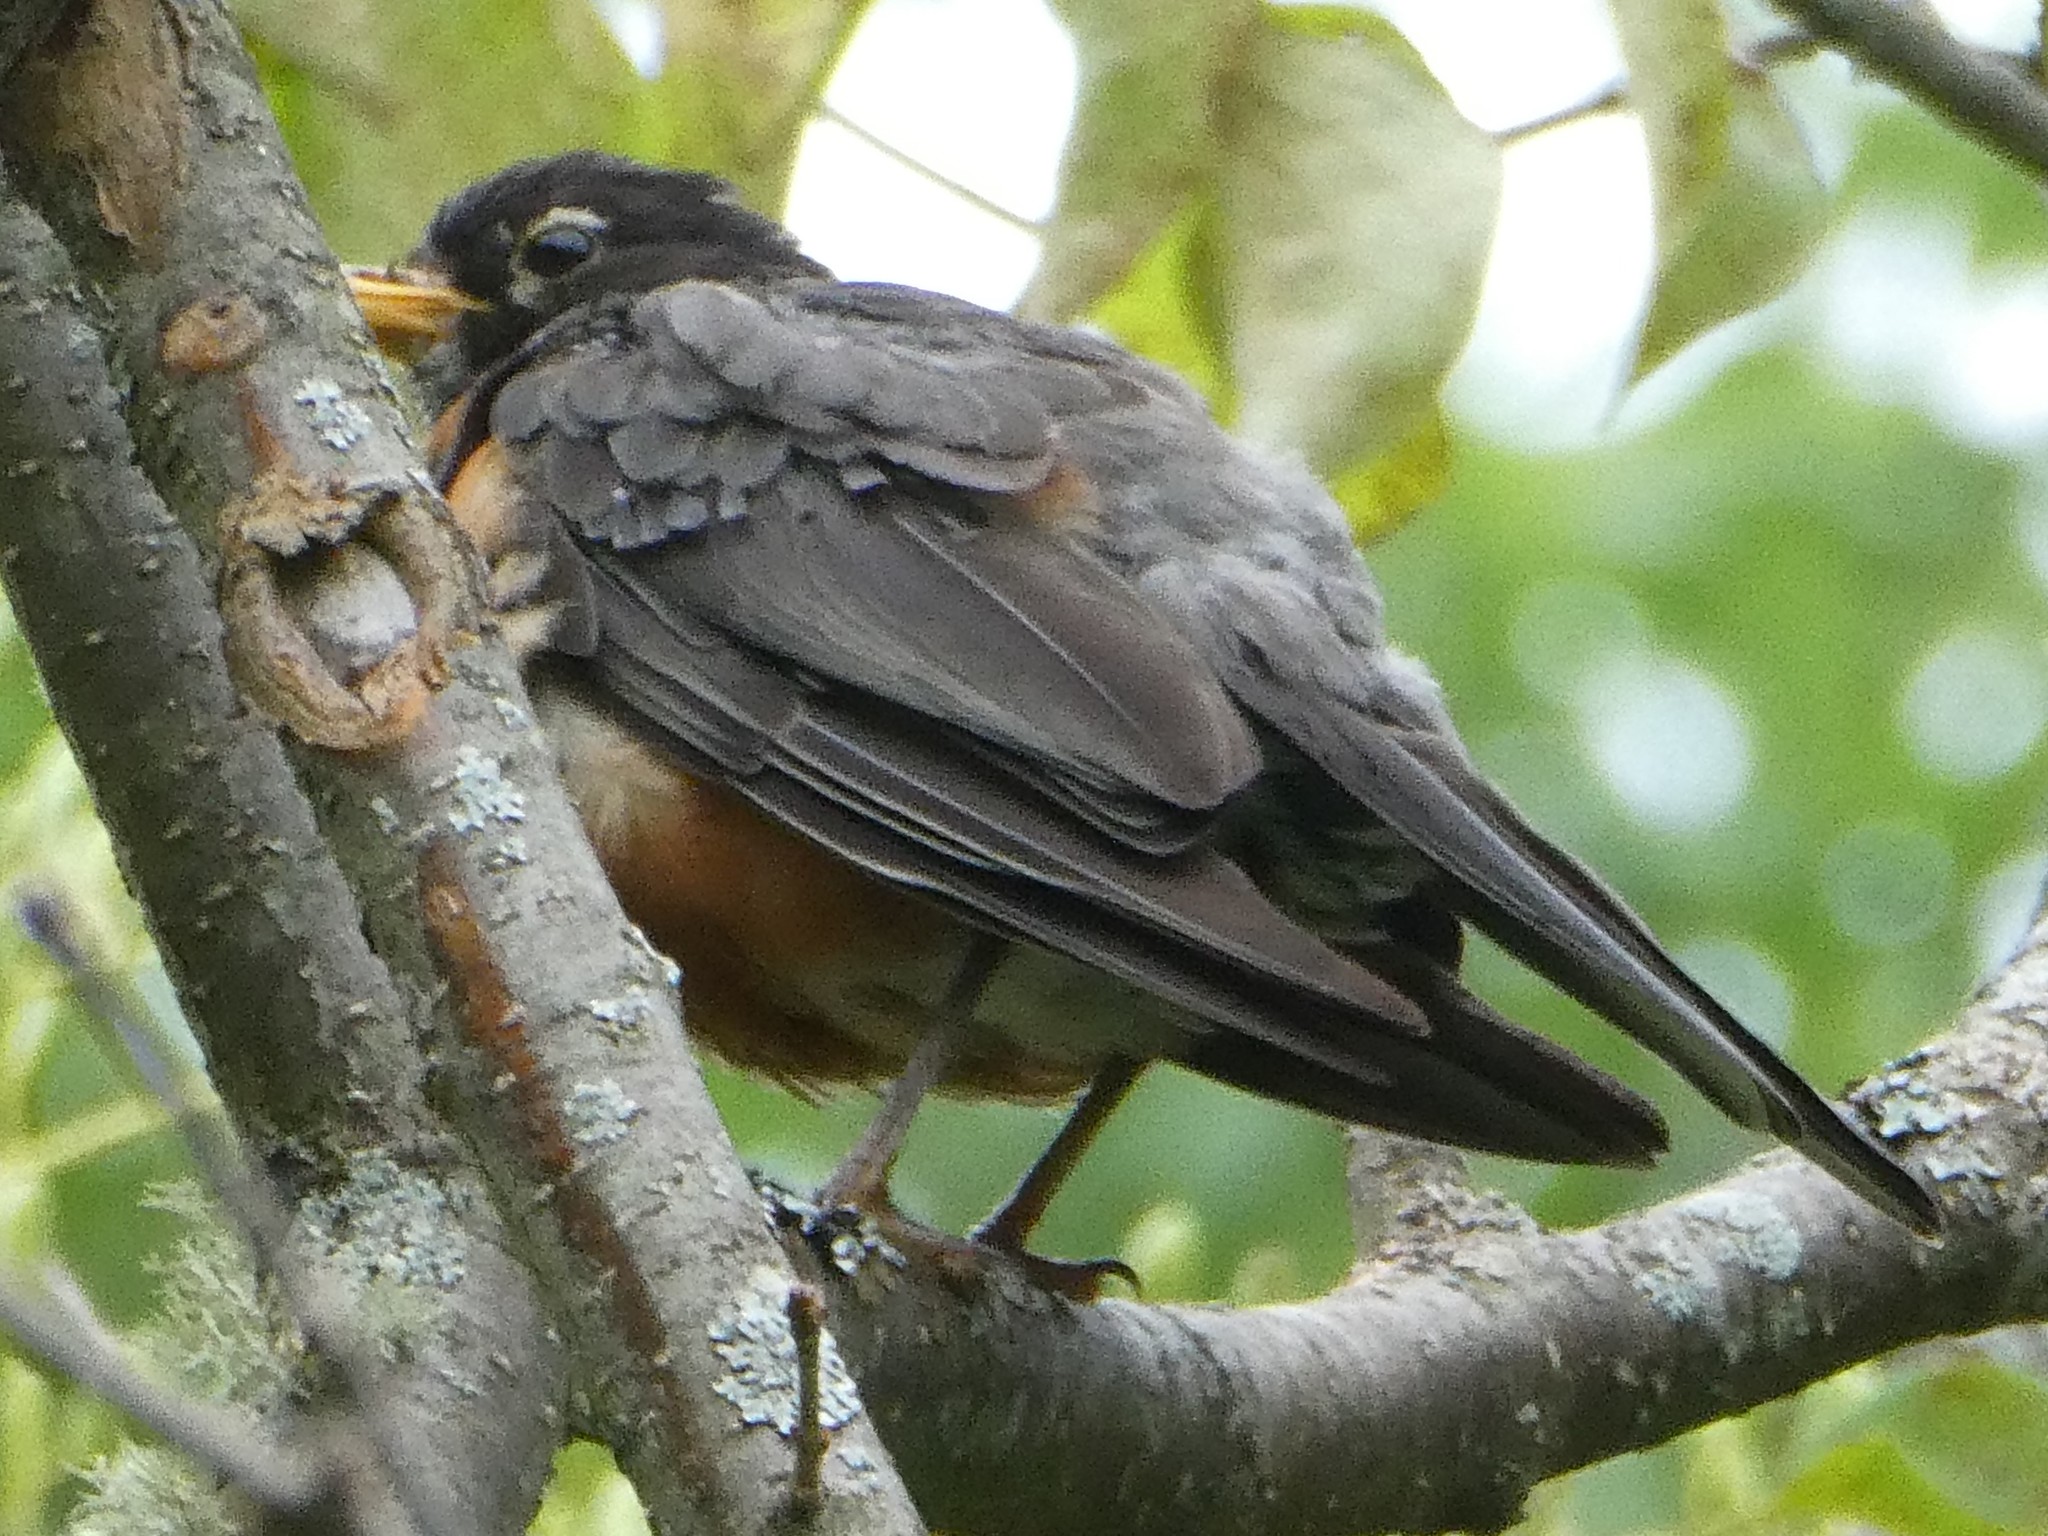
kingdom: Animalia
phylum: Chordata
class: Aves
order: Passeriformes
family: Turdidae
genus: Turdus
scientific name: Turdus migratorius
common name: American robin
